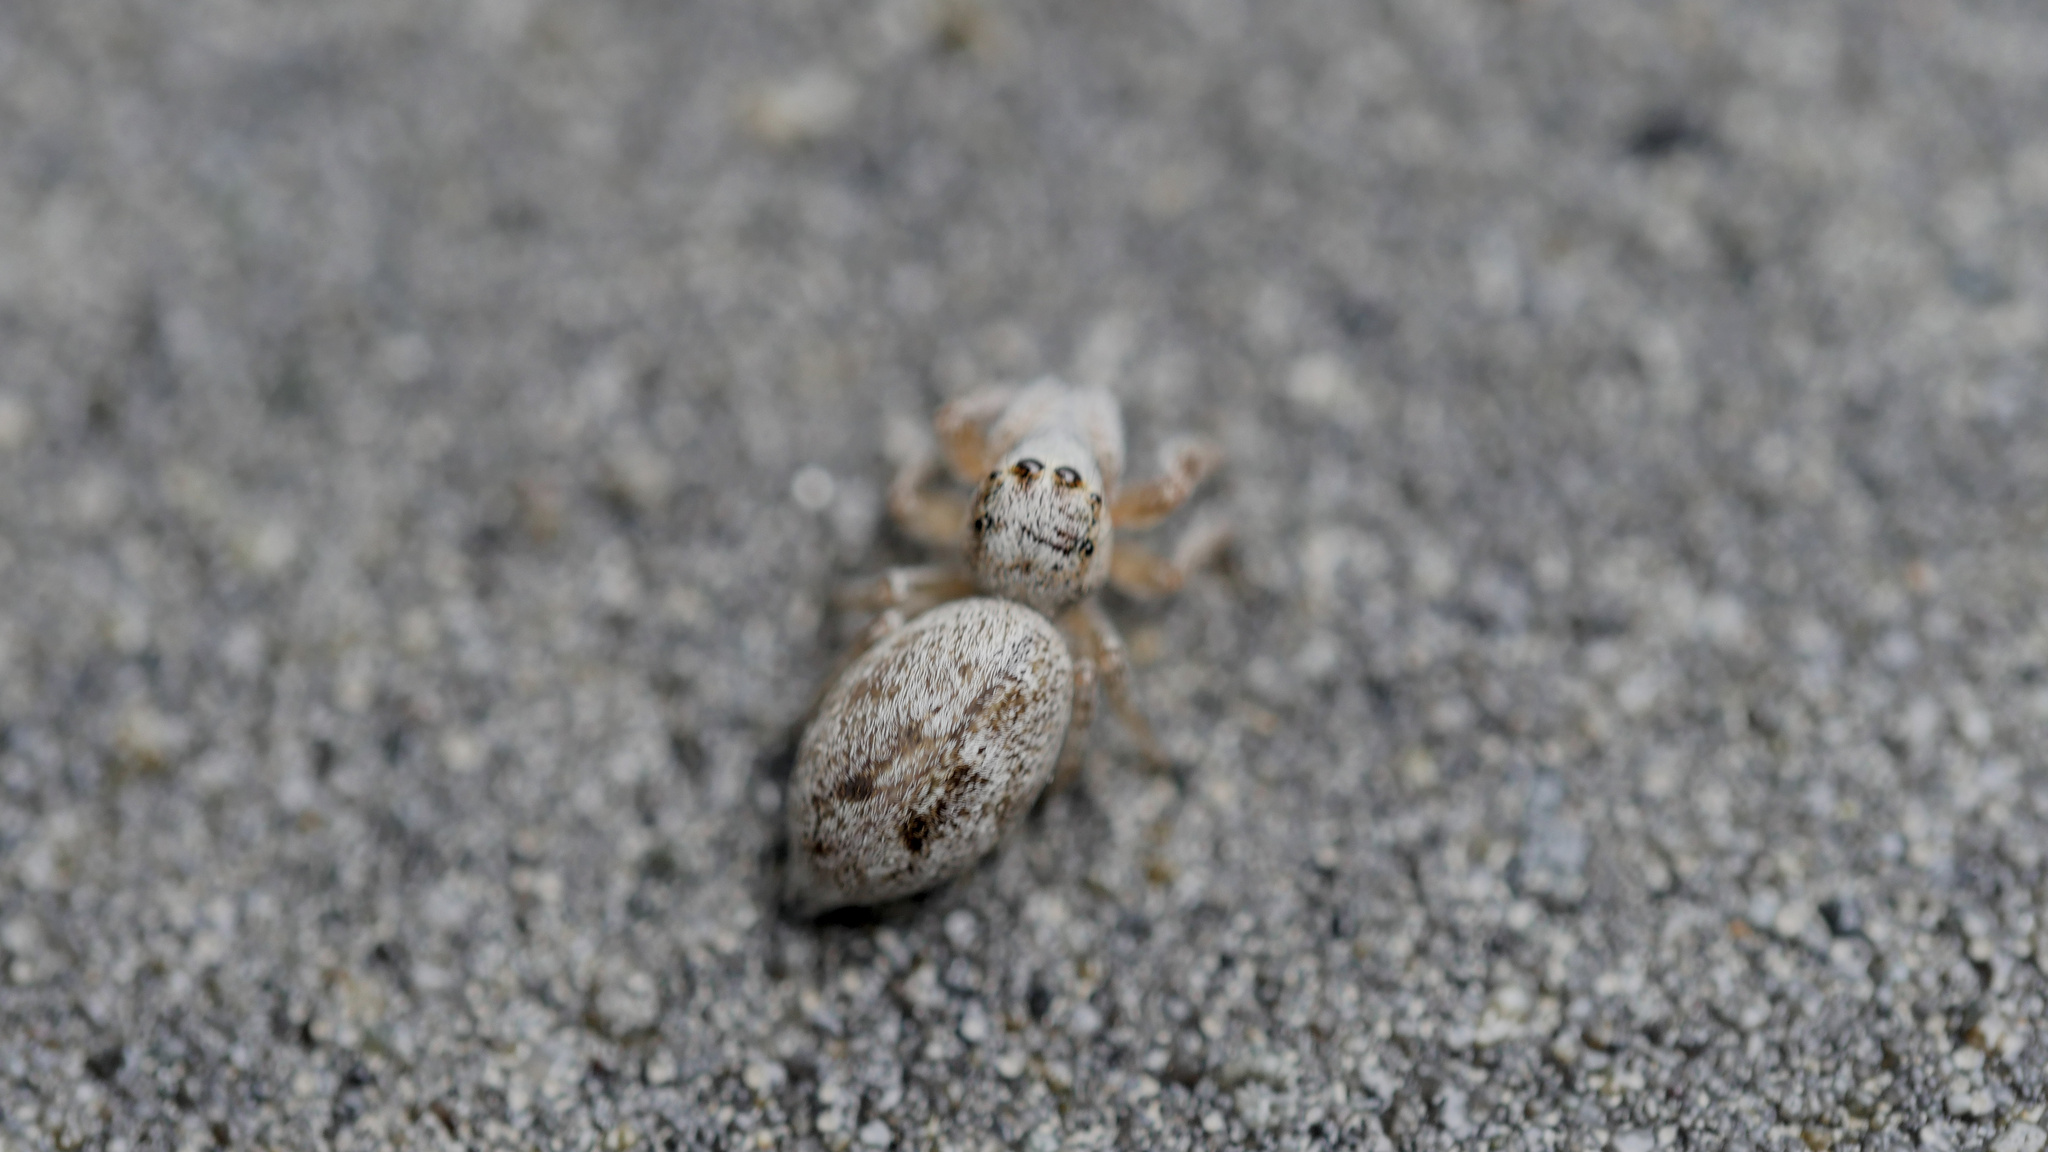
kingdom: Animalia
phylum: Arthropoda
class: Arachnida
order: Araneae
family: Salticidae
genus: Opisthoncus
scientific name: Opisthoncus polyphemus
